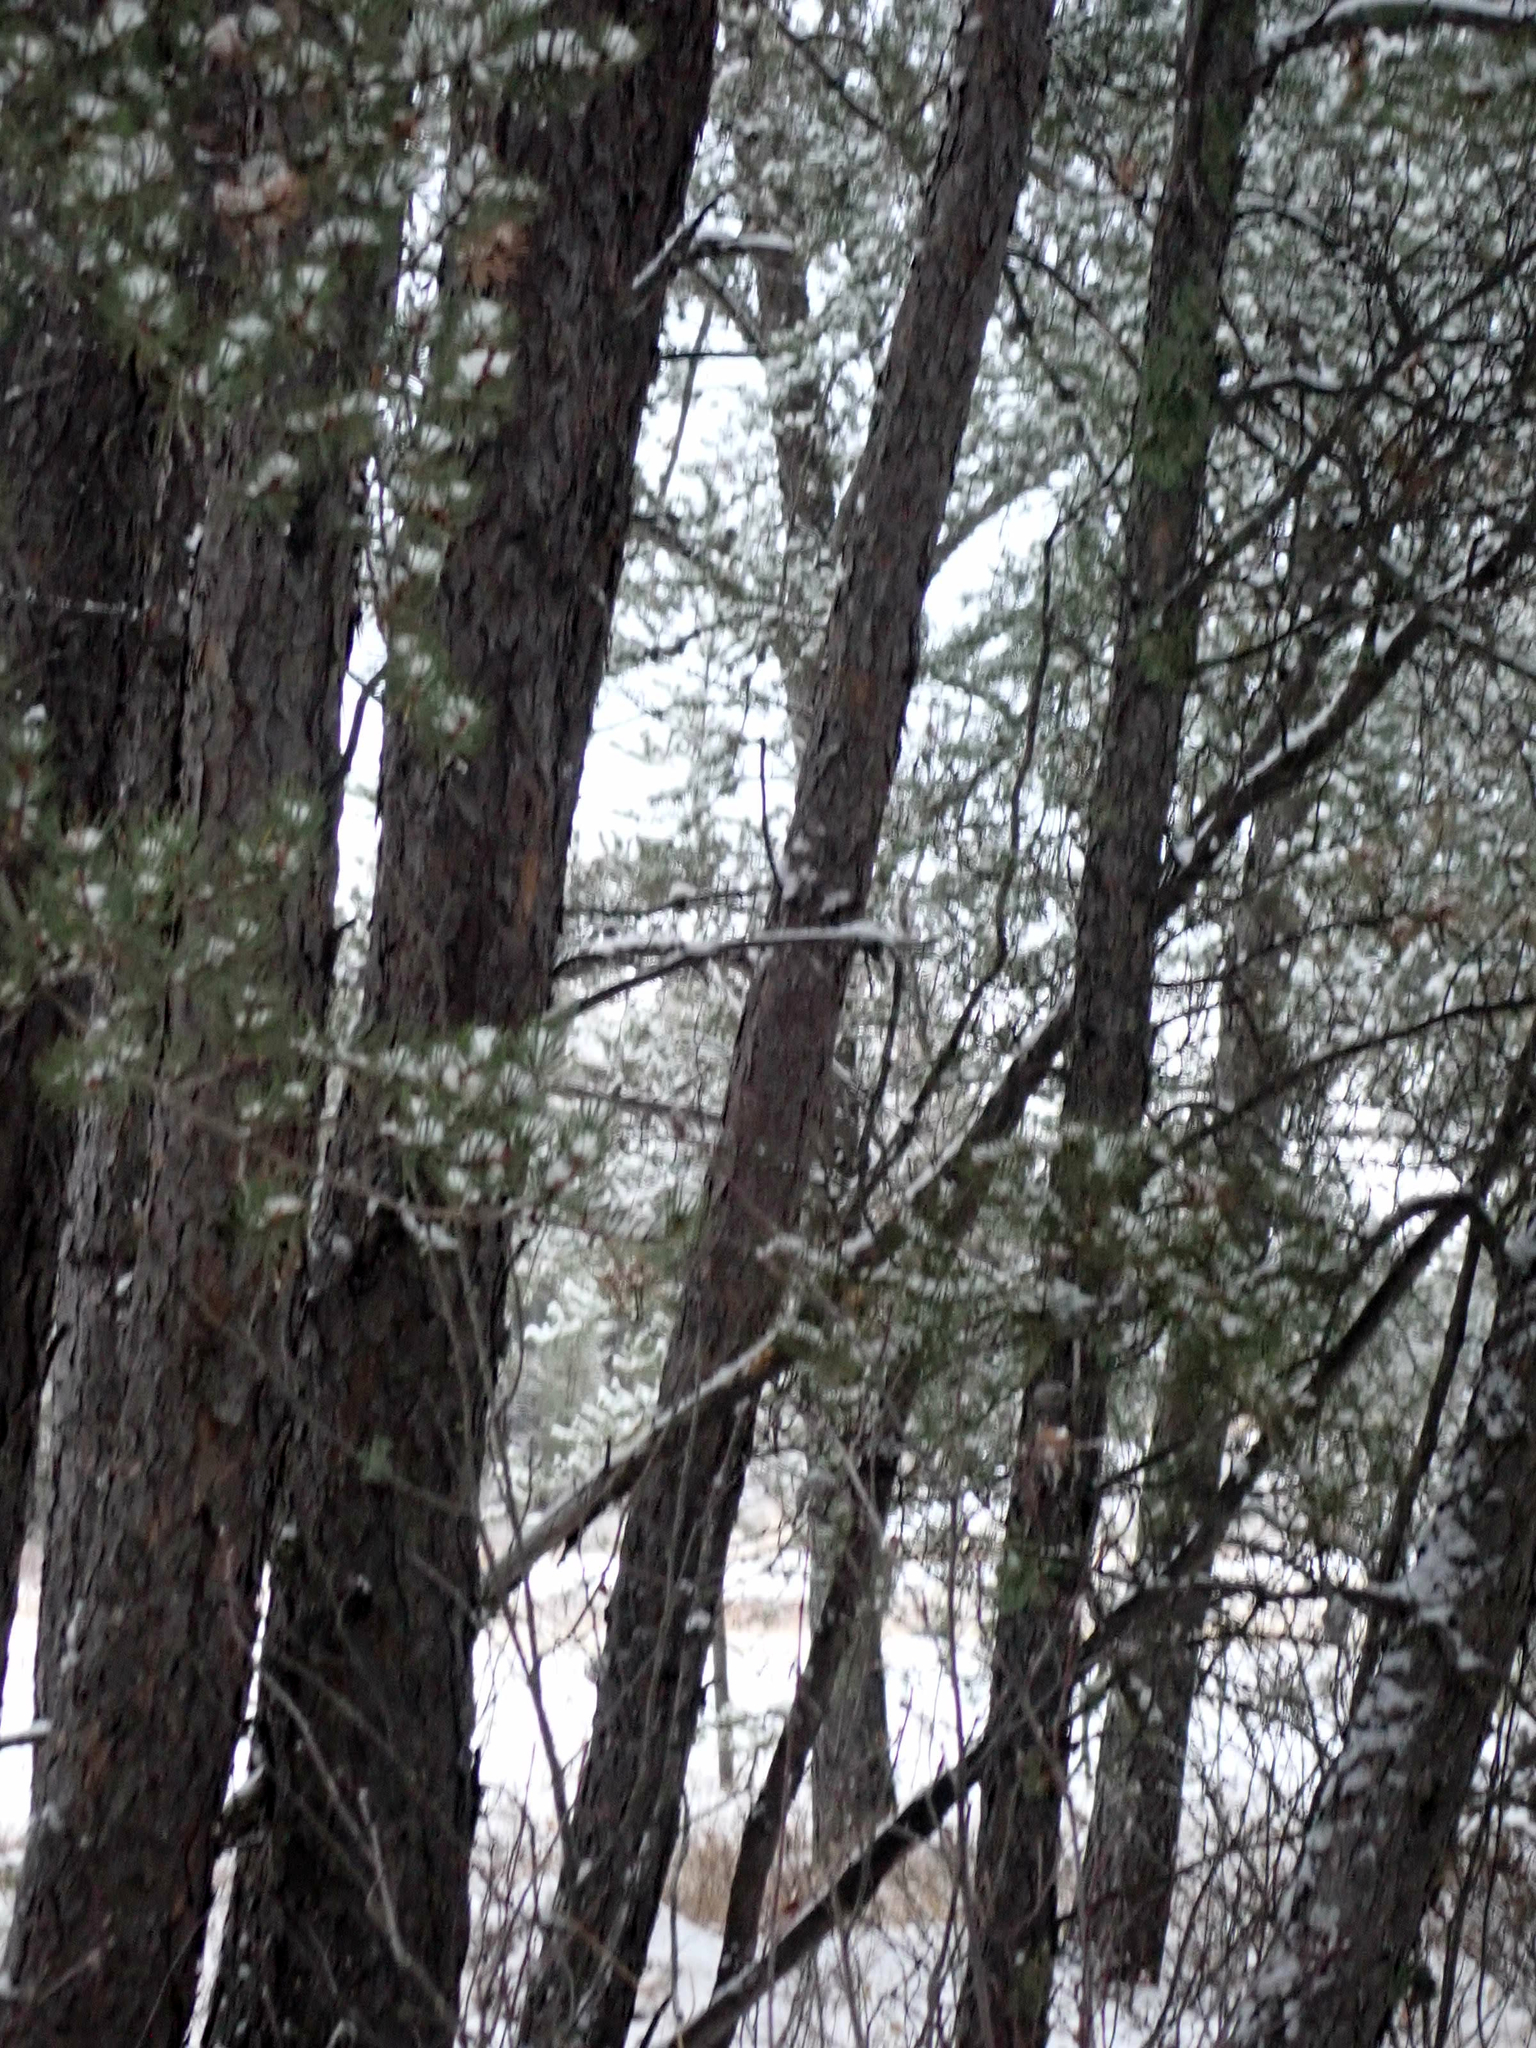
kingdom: Plantae
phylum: Tracheophyta
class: Pinopsida
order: Pinales
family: Pinaceae
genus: Pinus
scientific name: Pinus banksiana
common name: Jack pine
